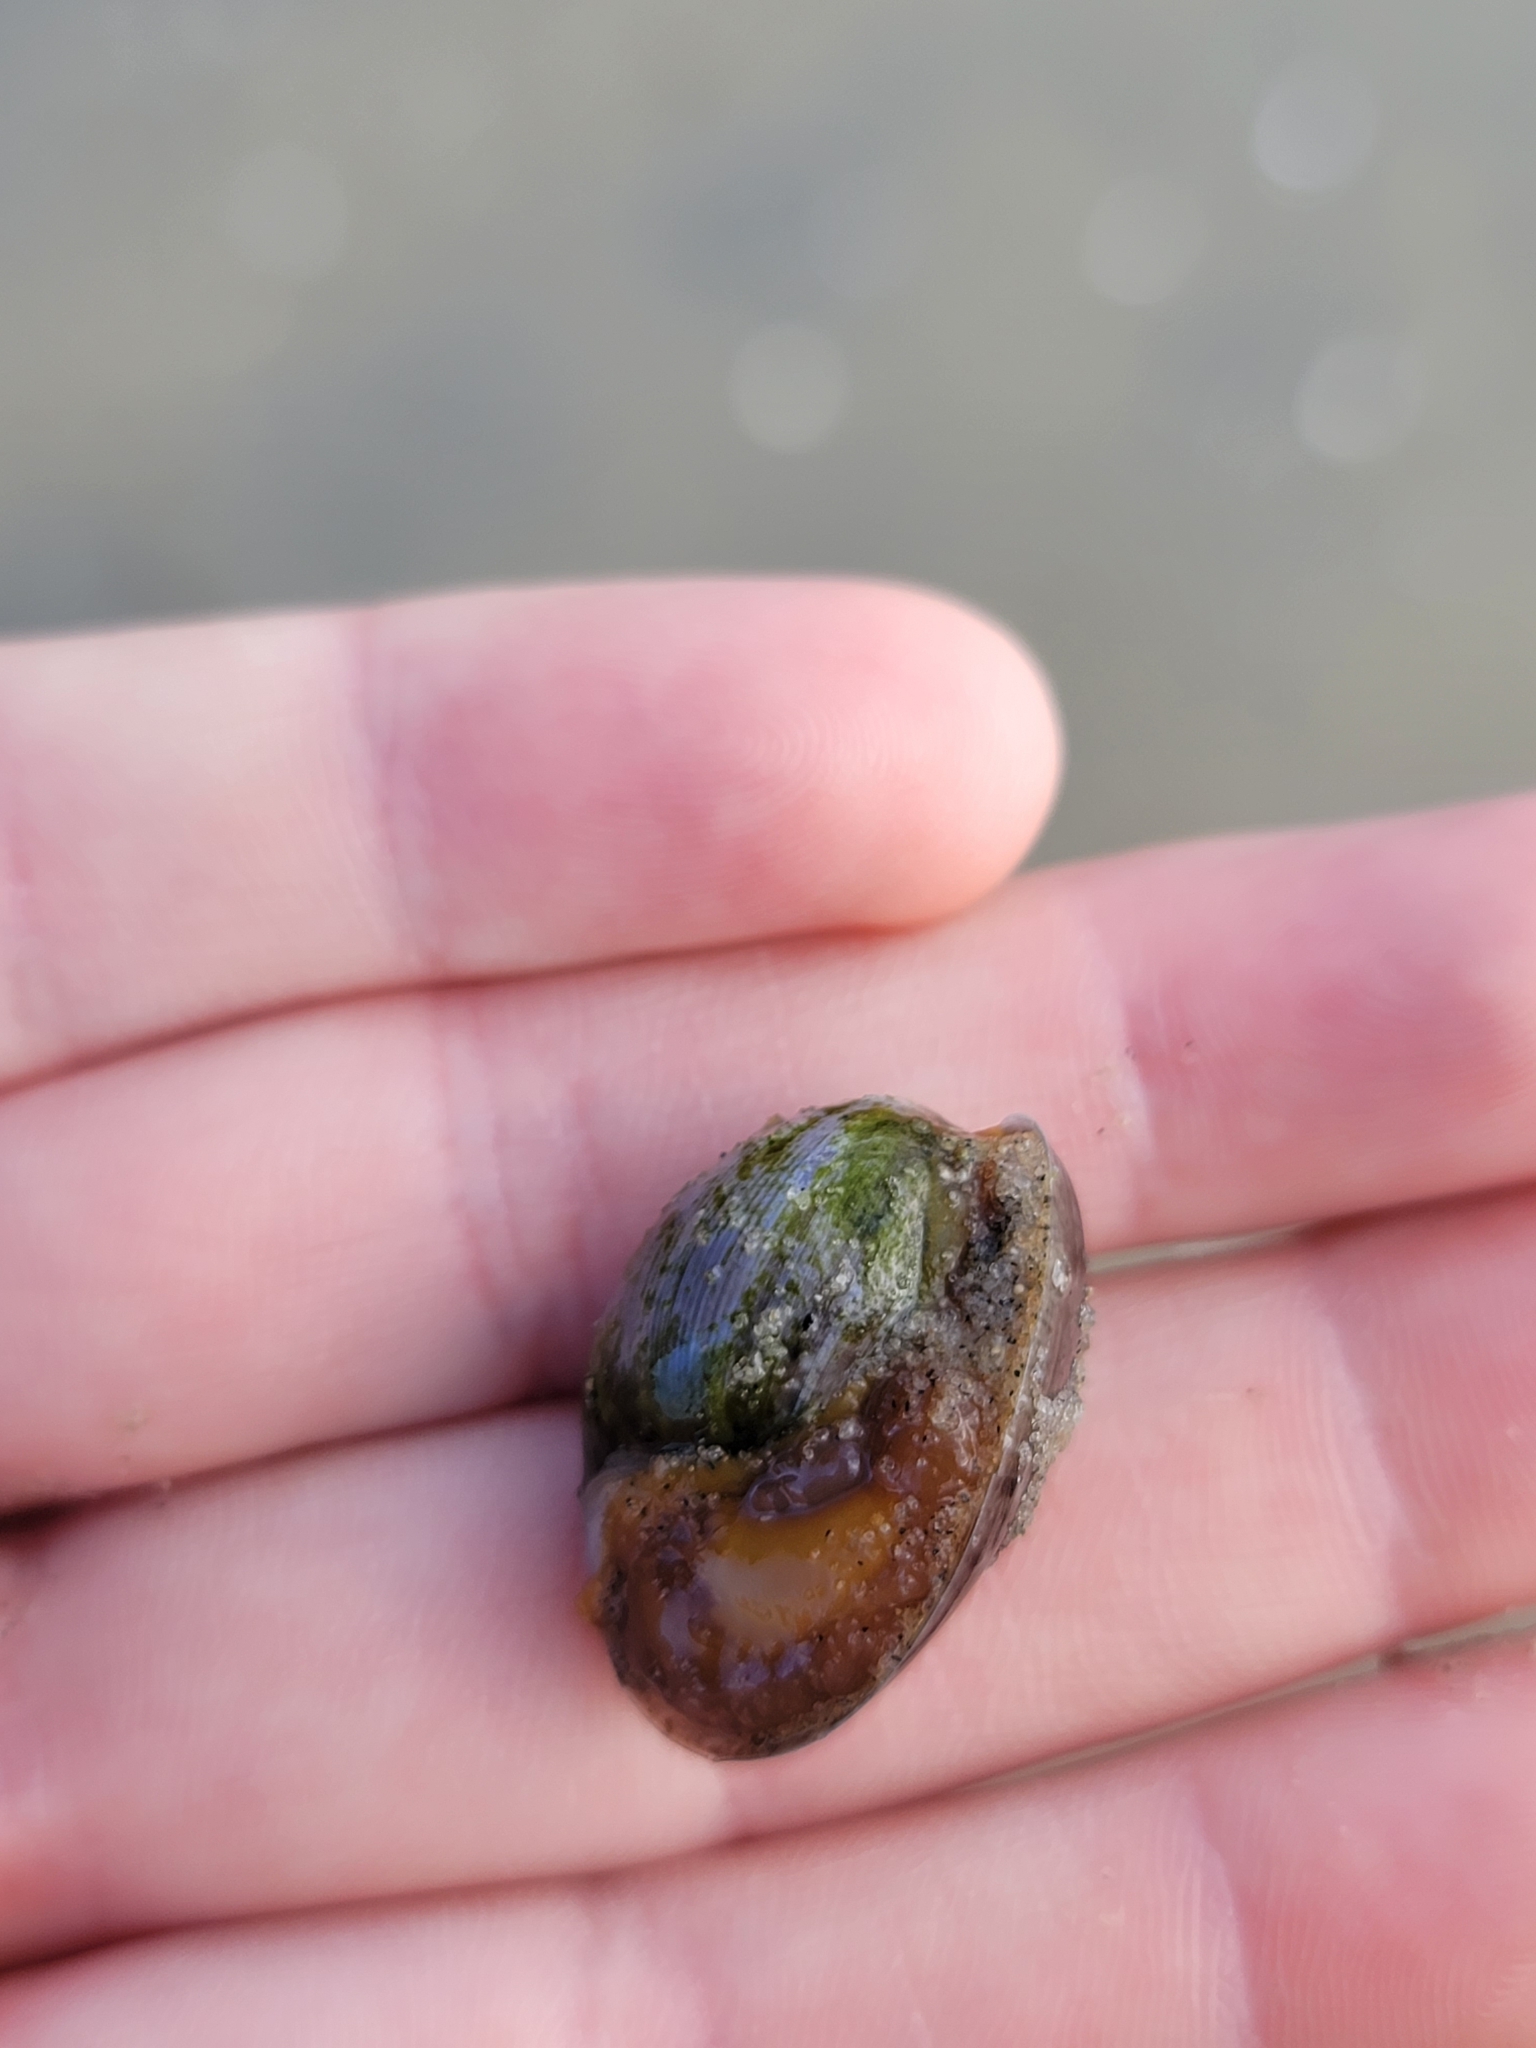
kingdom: Animalia
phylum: Mollusca
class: Gastropoda
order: Cephalaspidea
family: Bullidae
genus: Bulla
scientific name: Bulla gouldiana
